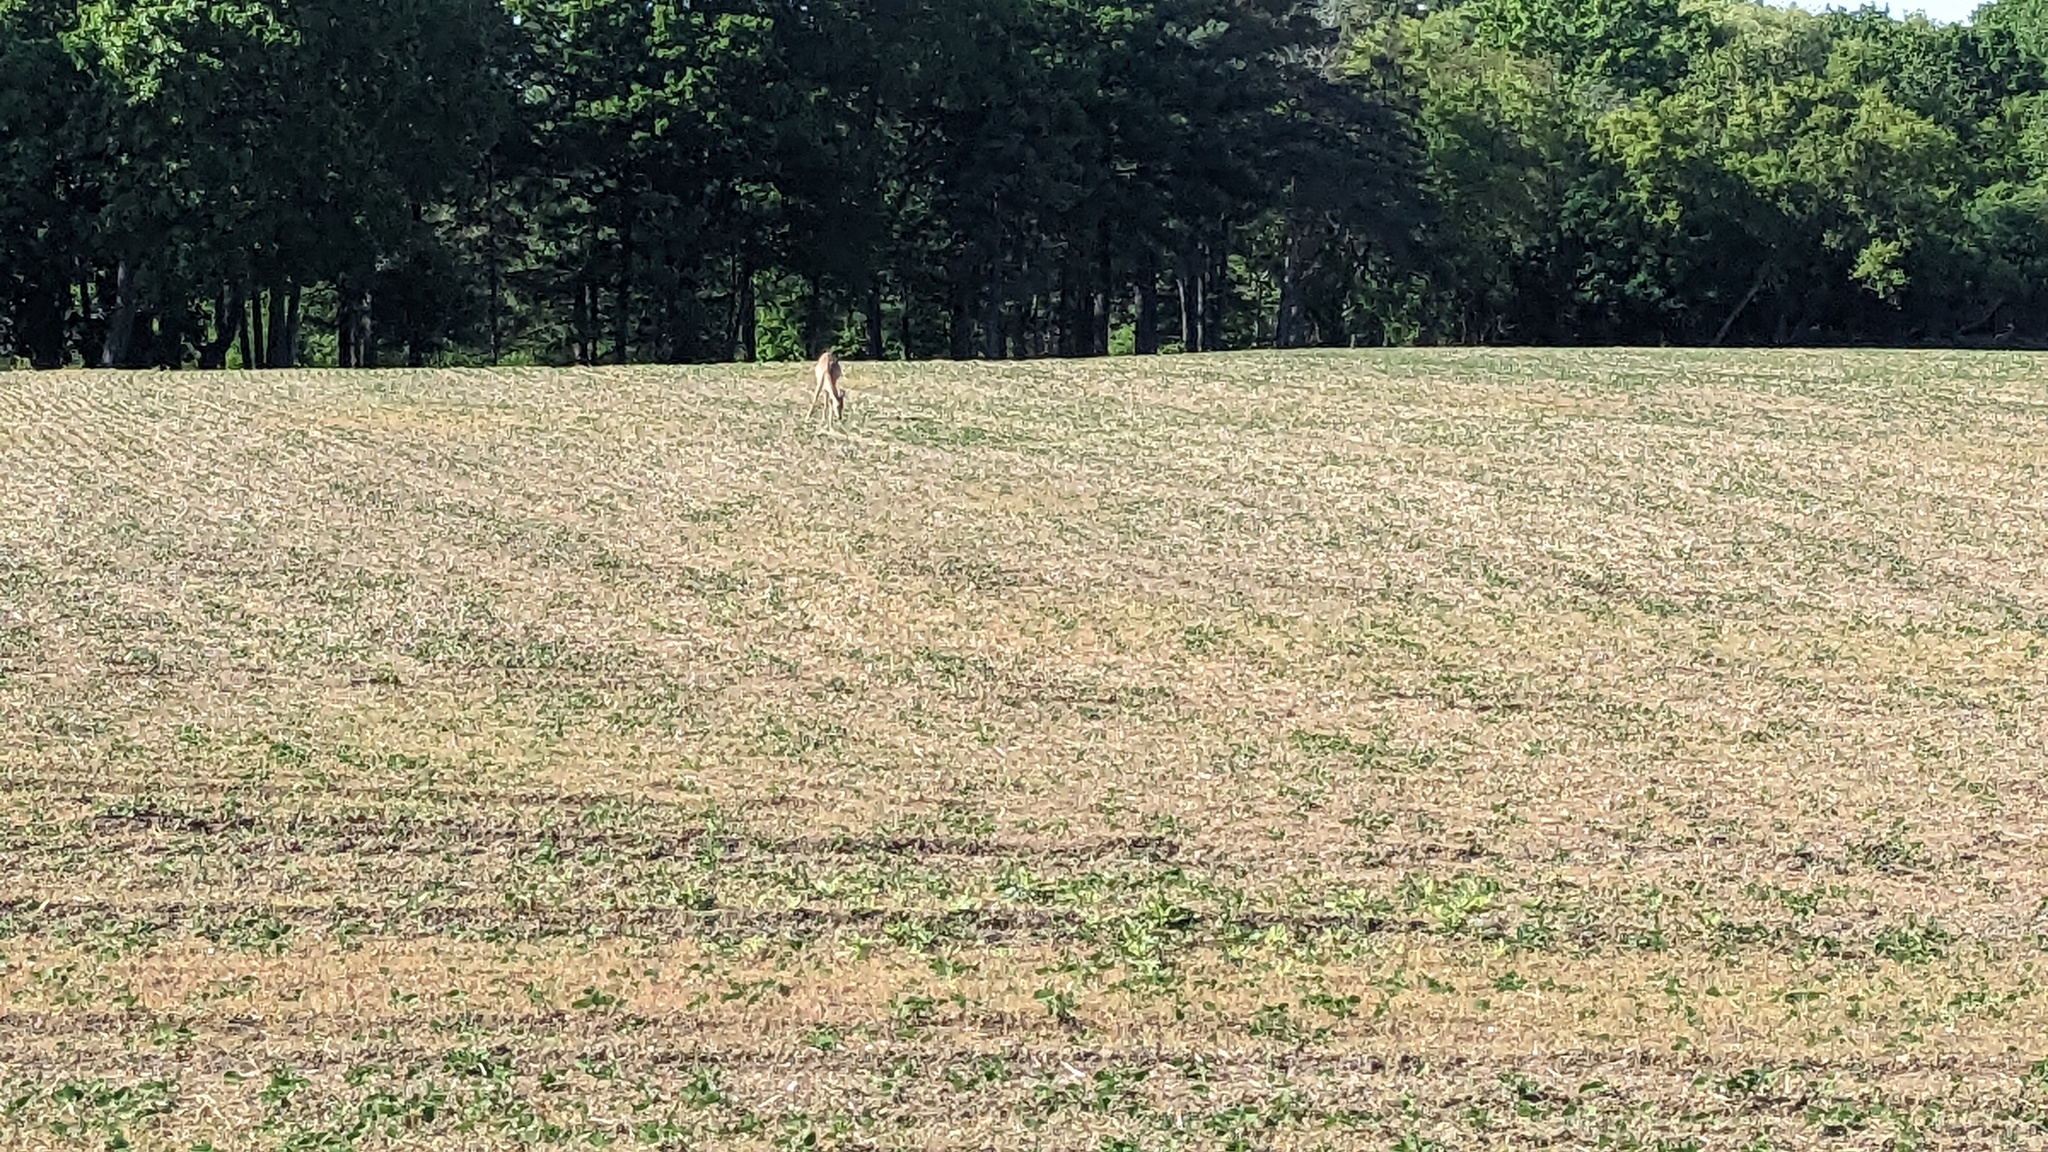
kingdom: Animalia
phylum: Chordata
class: Mammalia
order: Artiodactyla
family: Cervidae
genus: Odocoileus
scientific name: Odocoileus virginianus
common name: White-tailed deer
